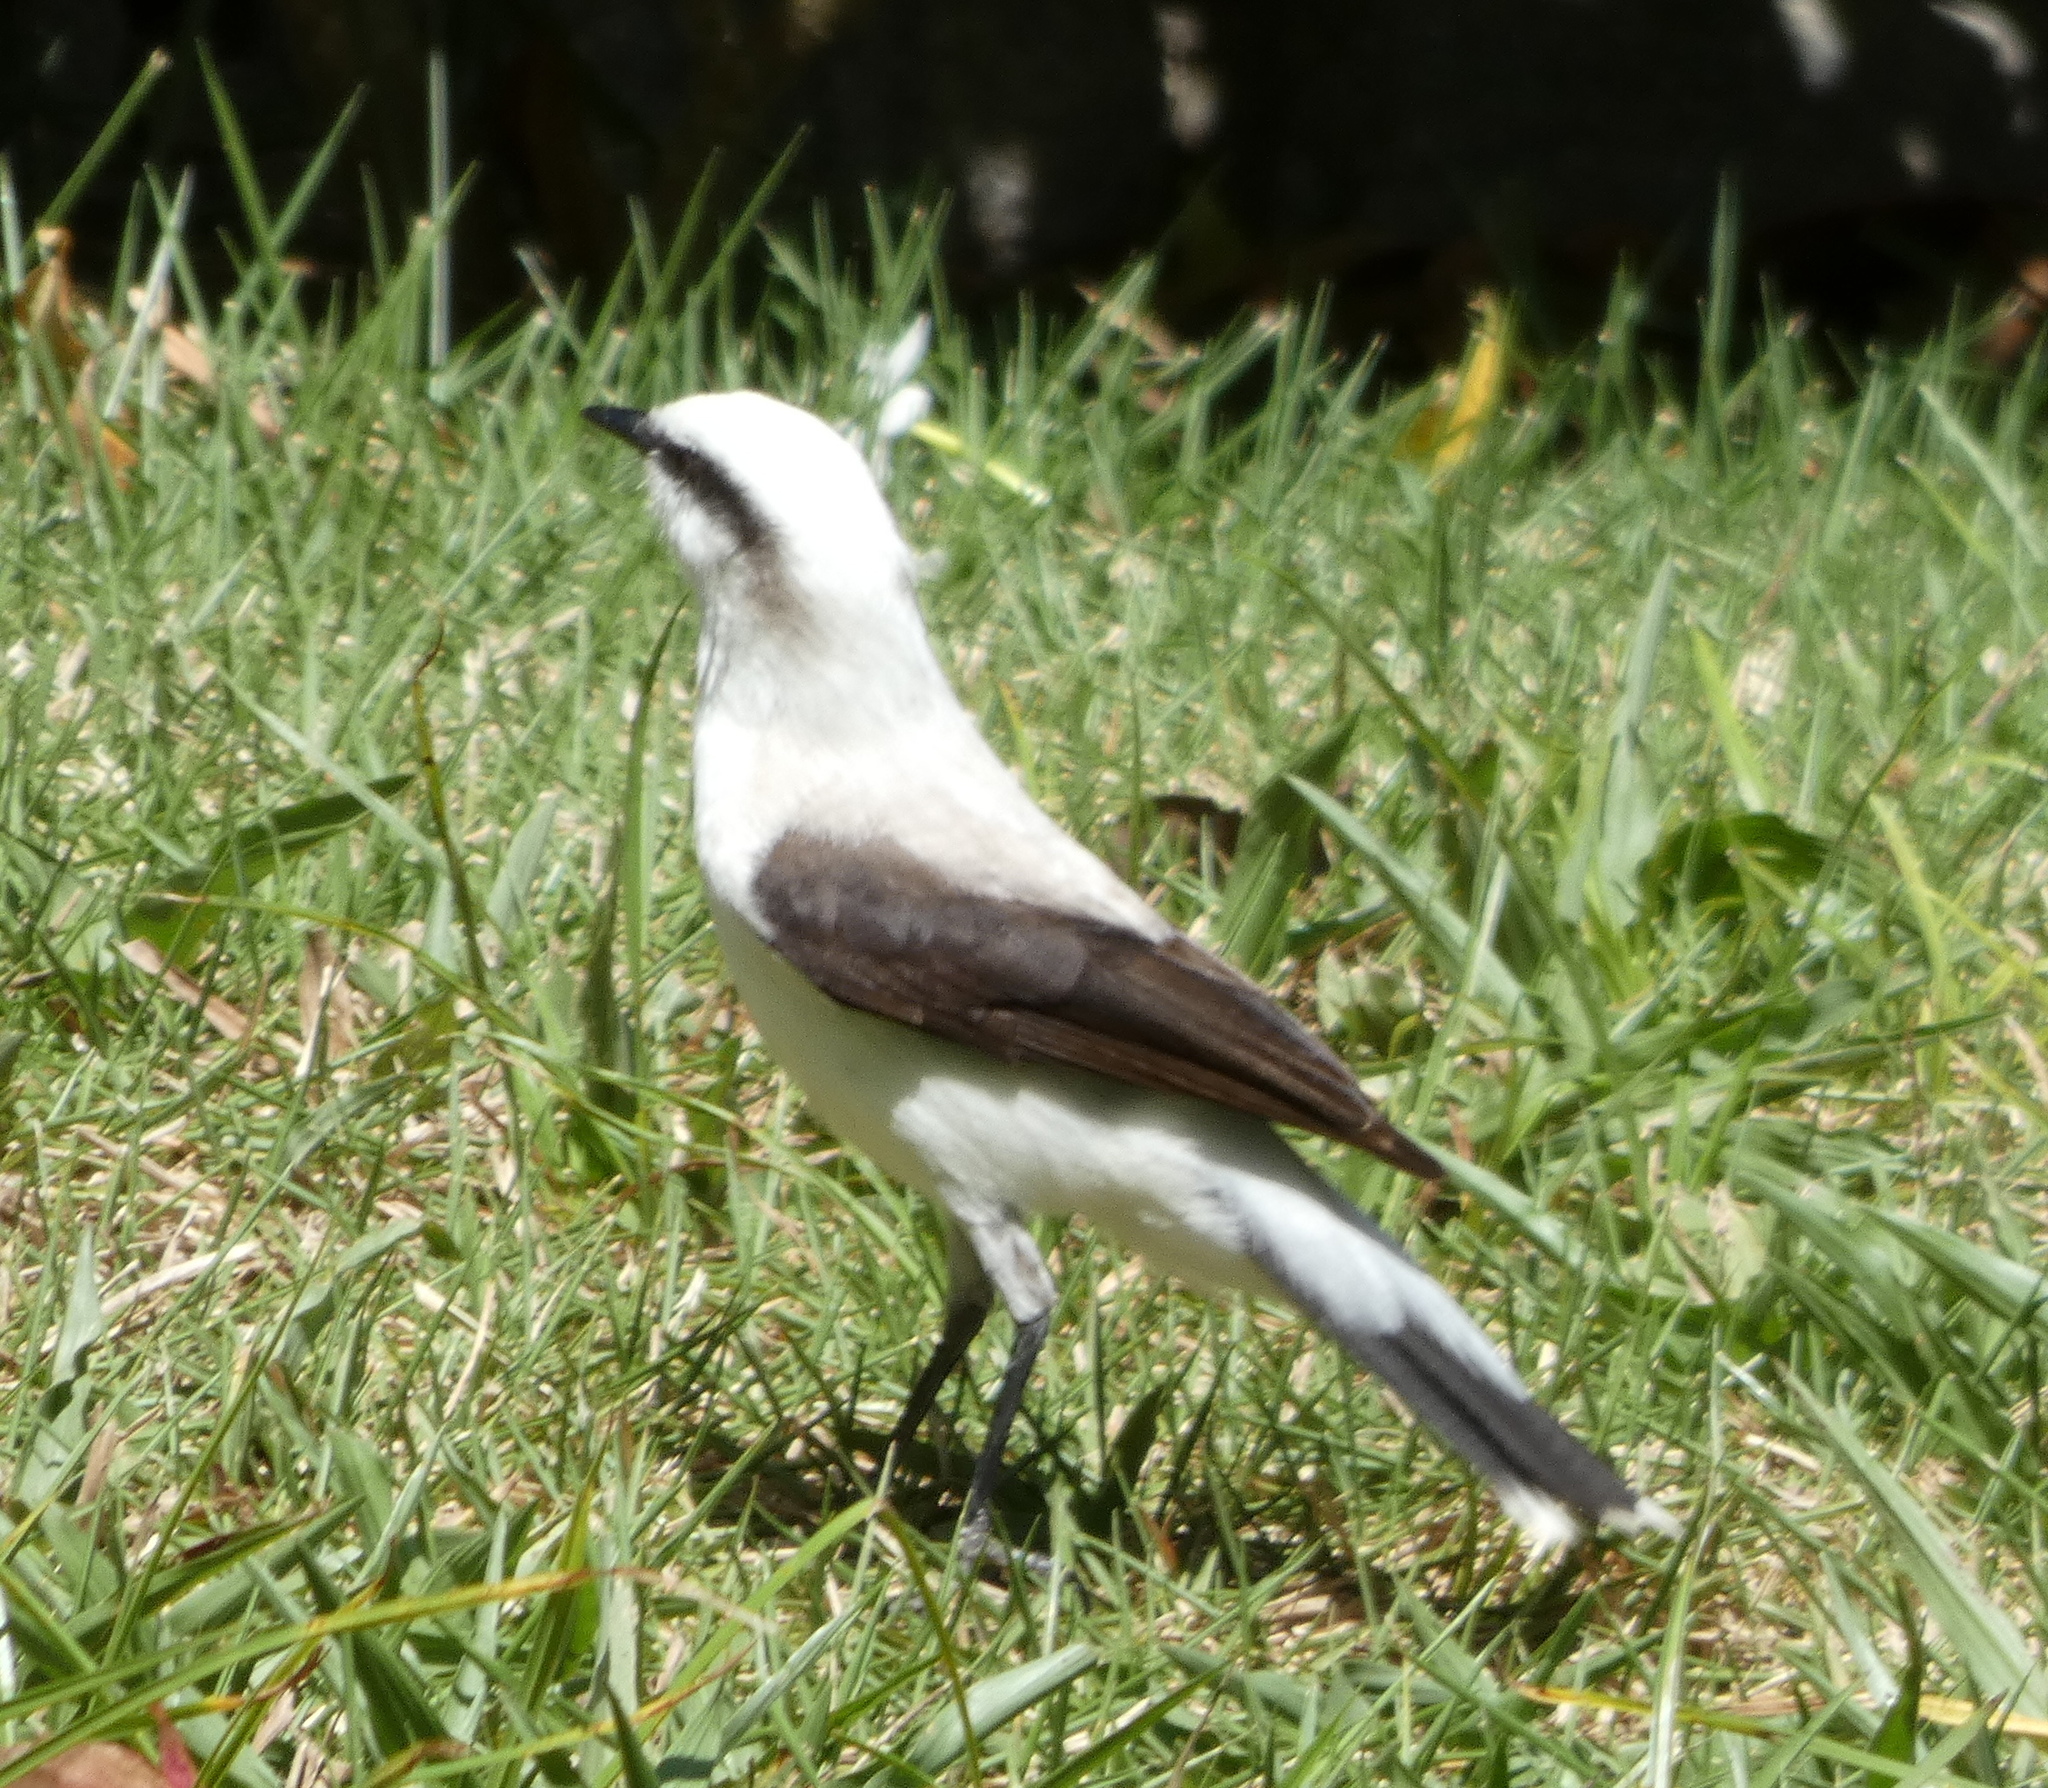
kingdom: Animalia
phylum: Chordata
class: Aves
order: Passeriformes
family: Tyrannidae
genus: Fluvicola
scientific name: Fluvicola nengeta
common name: Masked water tyrant
